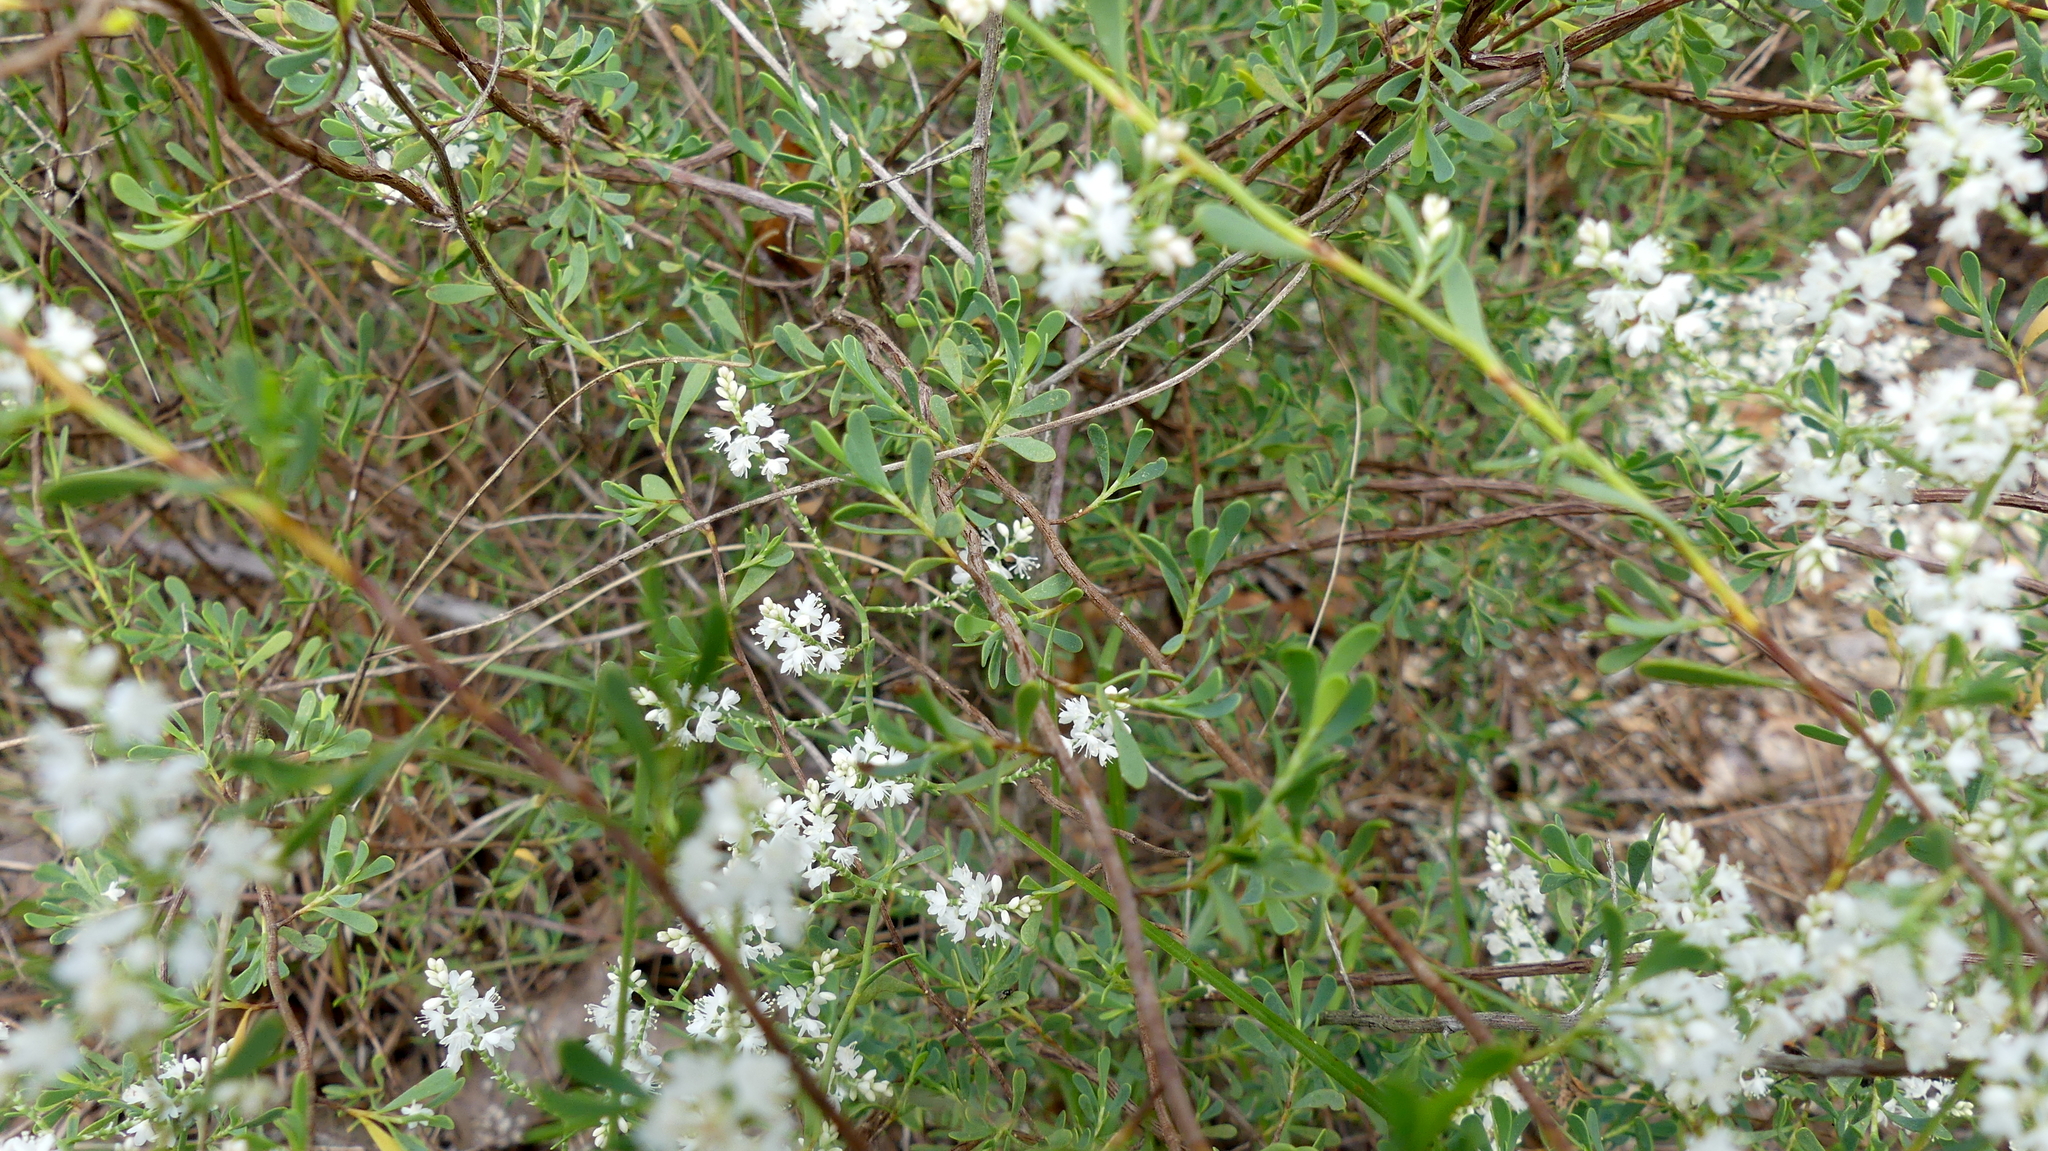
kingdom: Plantae
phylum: Tracheophyta
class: Magnoliopsida
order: Caryophyllales
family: Polygonaceae
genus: Polygonella
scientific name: Polygonella polygama
